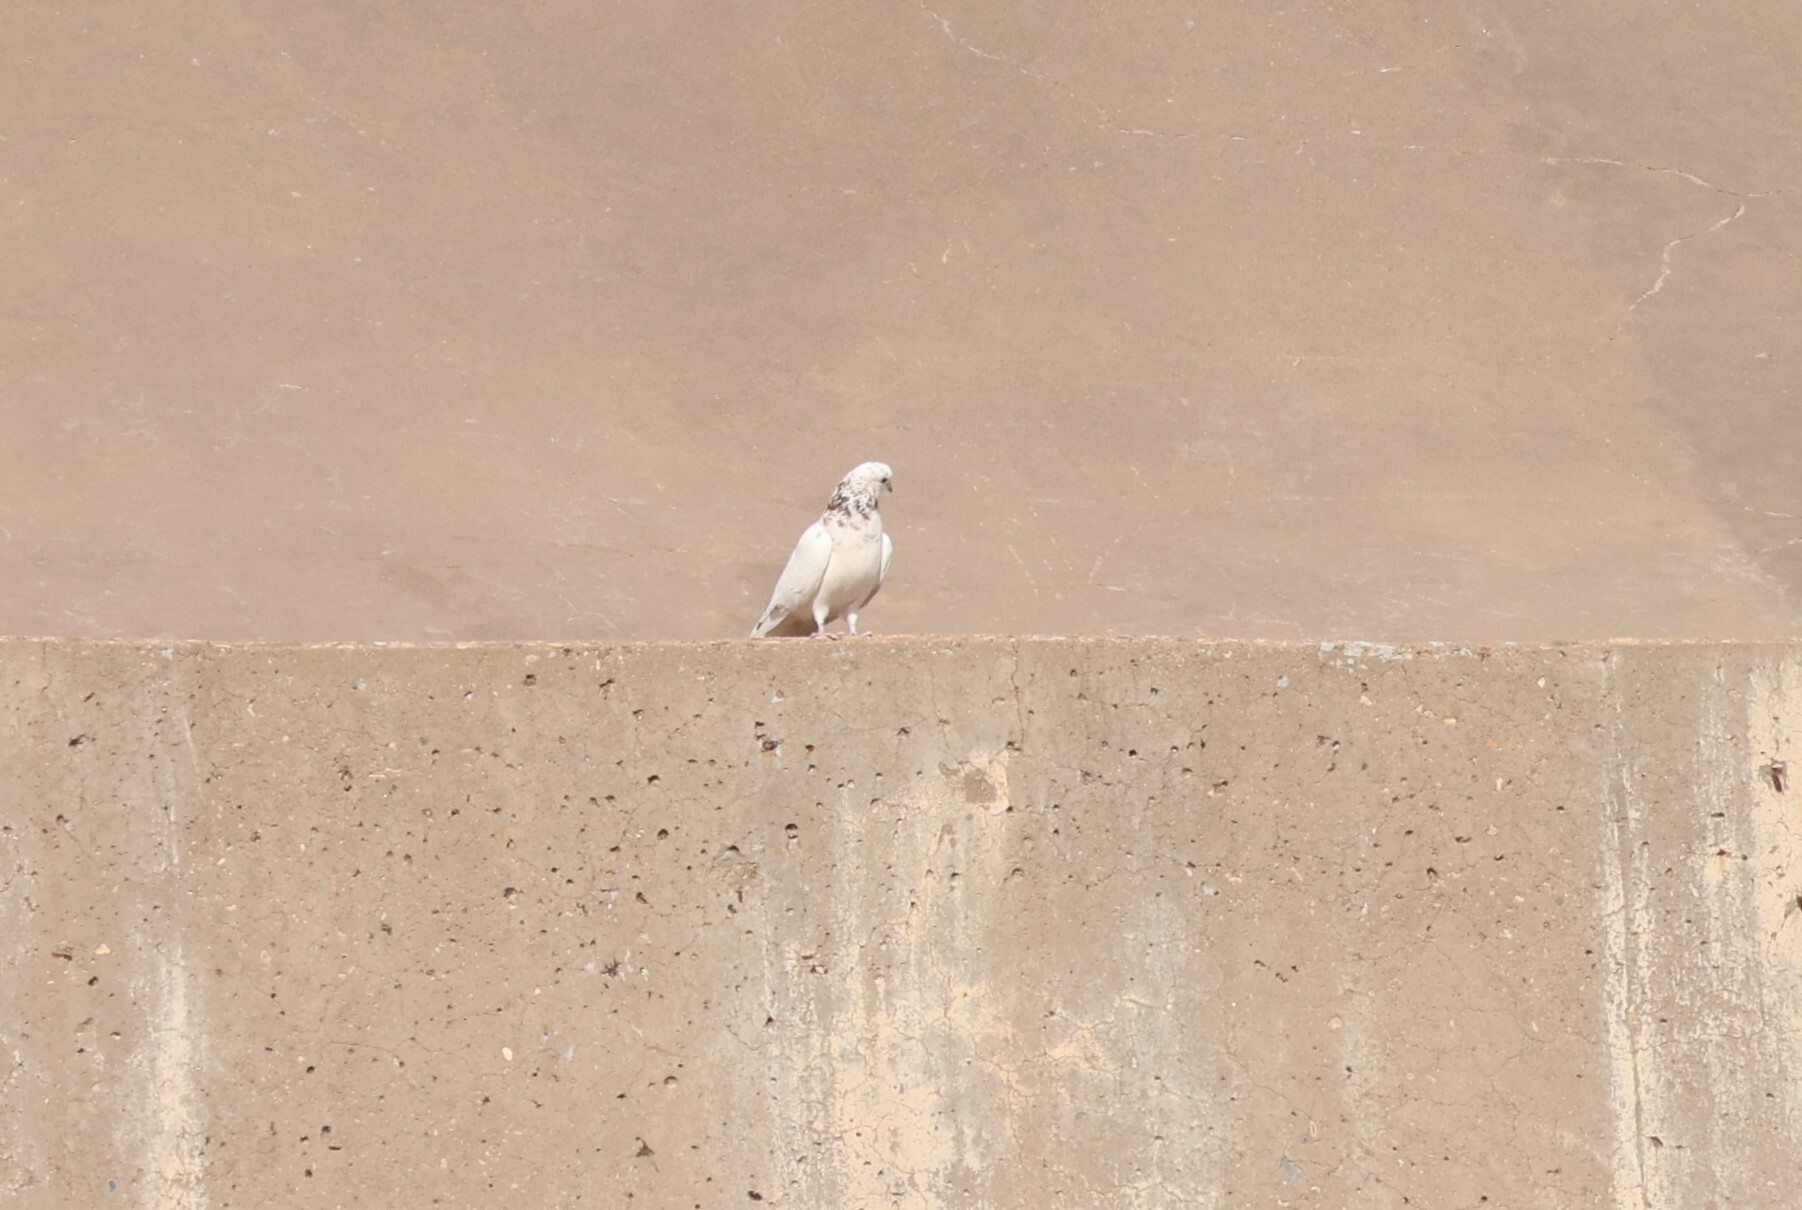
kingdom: Animalia
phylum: Chordata
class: Aves
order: Columbiformes
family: Columbidae
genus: Columba
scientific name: Columba livia
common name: Rock pigeon
